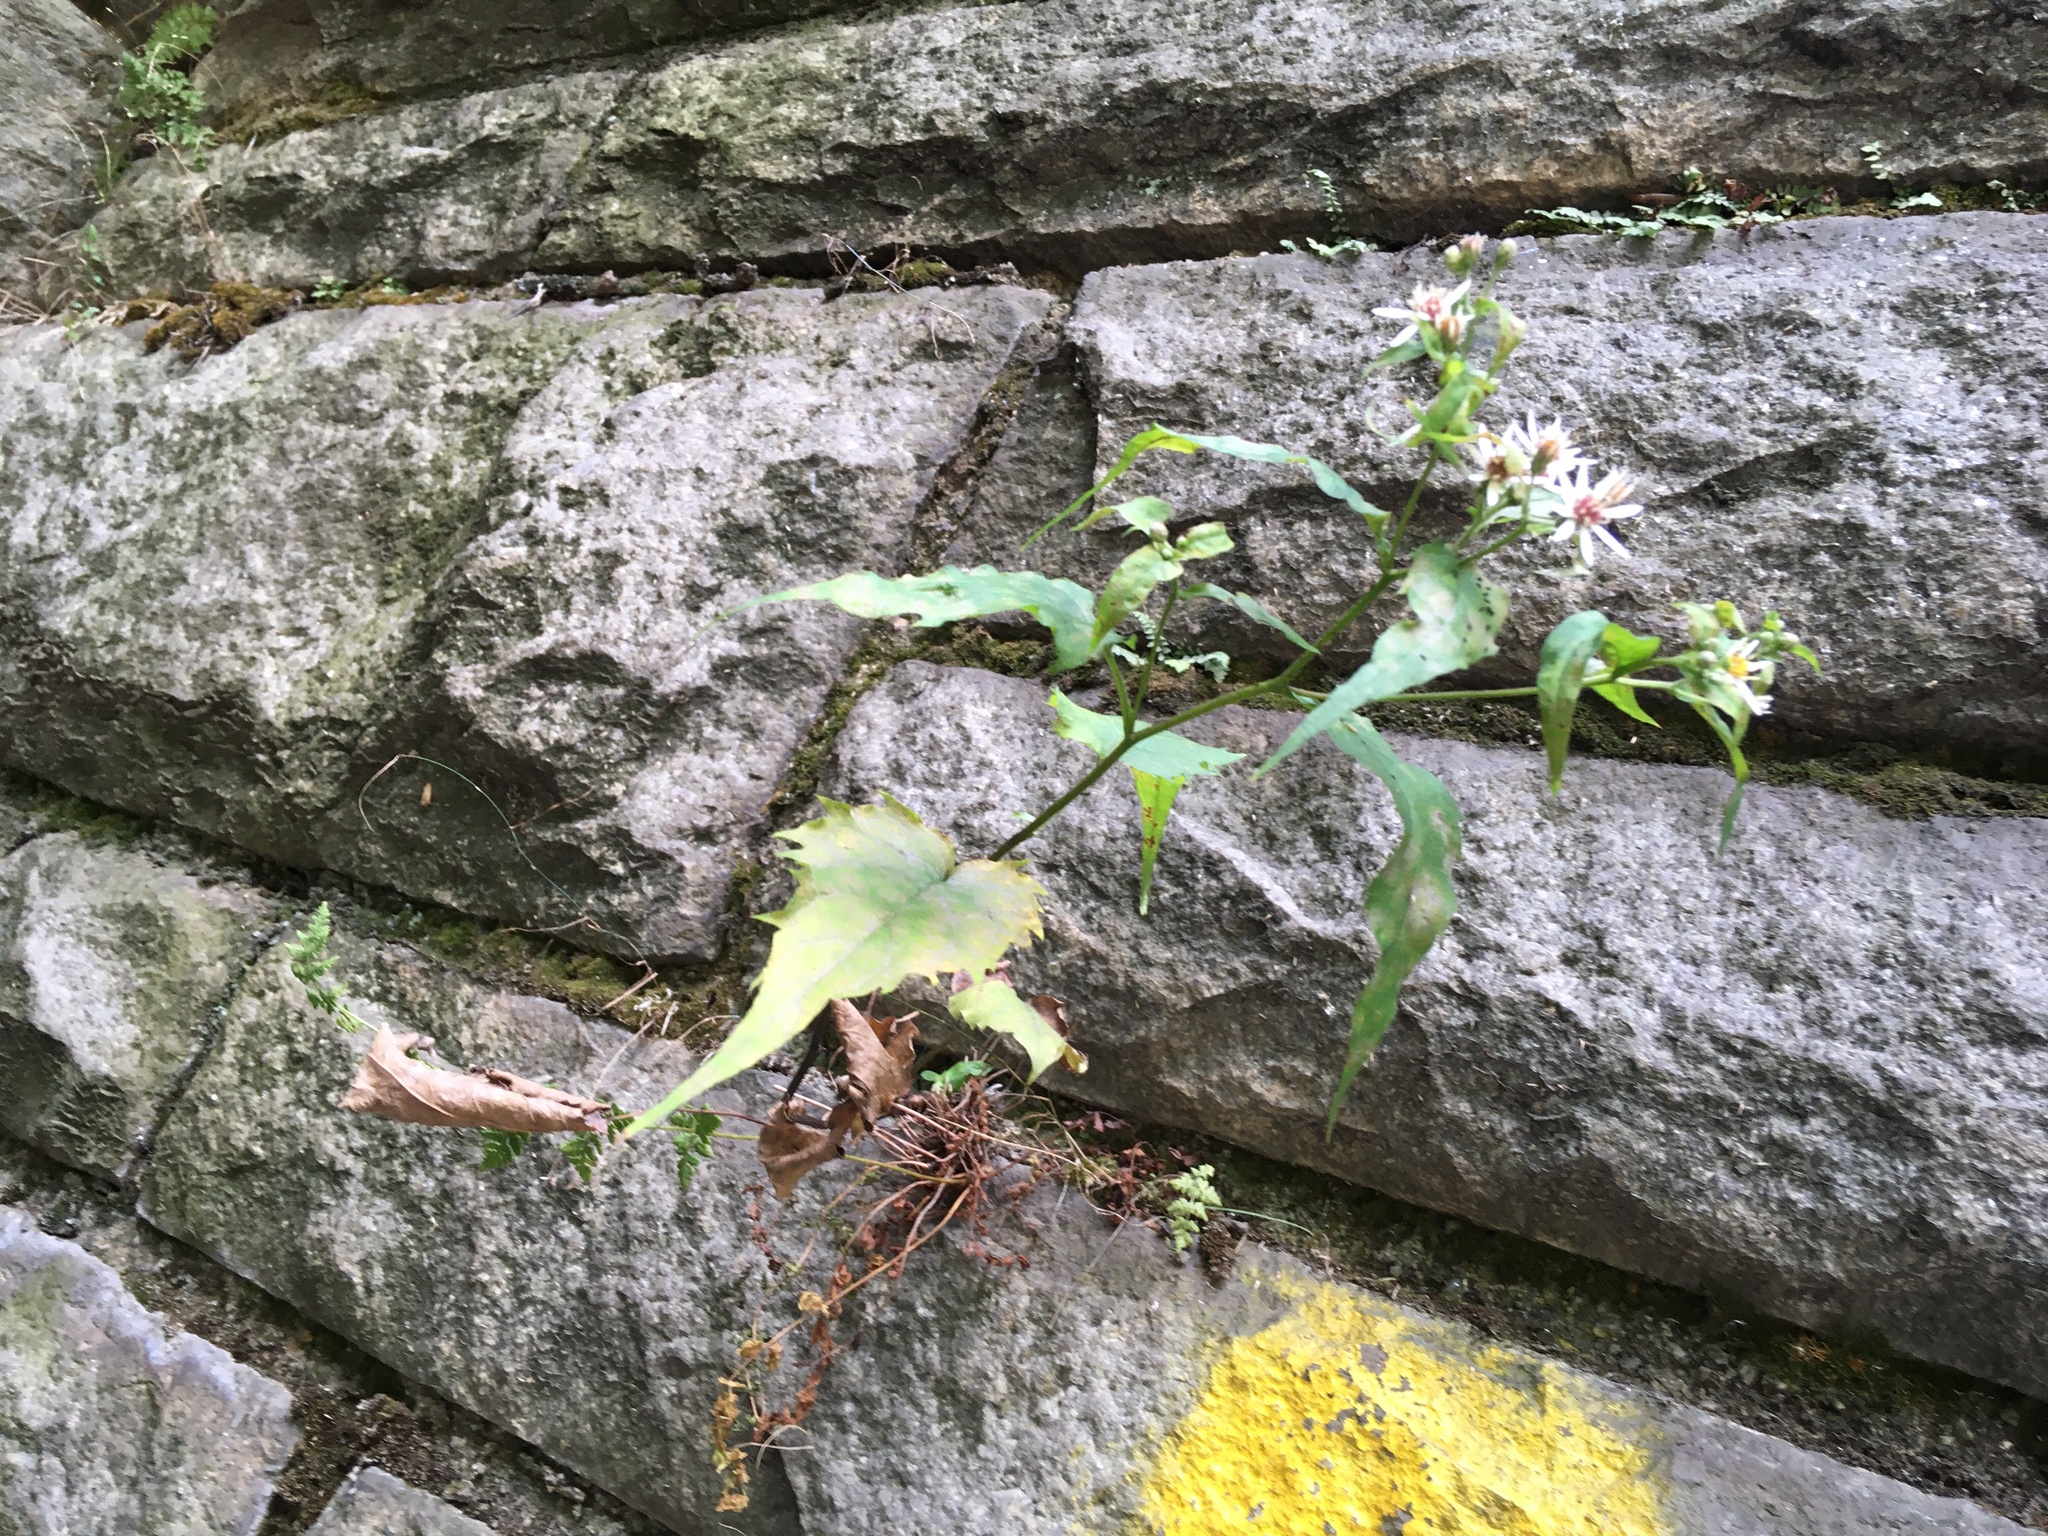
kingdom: Plantae
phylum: Tracheophyta
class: Magnoliopsida
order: Asterales
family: Asteraceae
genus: Eurybia
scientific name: Eurybia divaricata
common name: White wood aster
